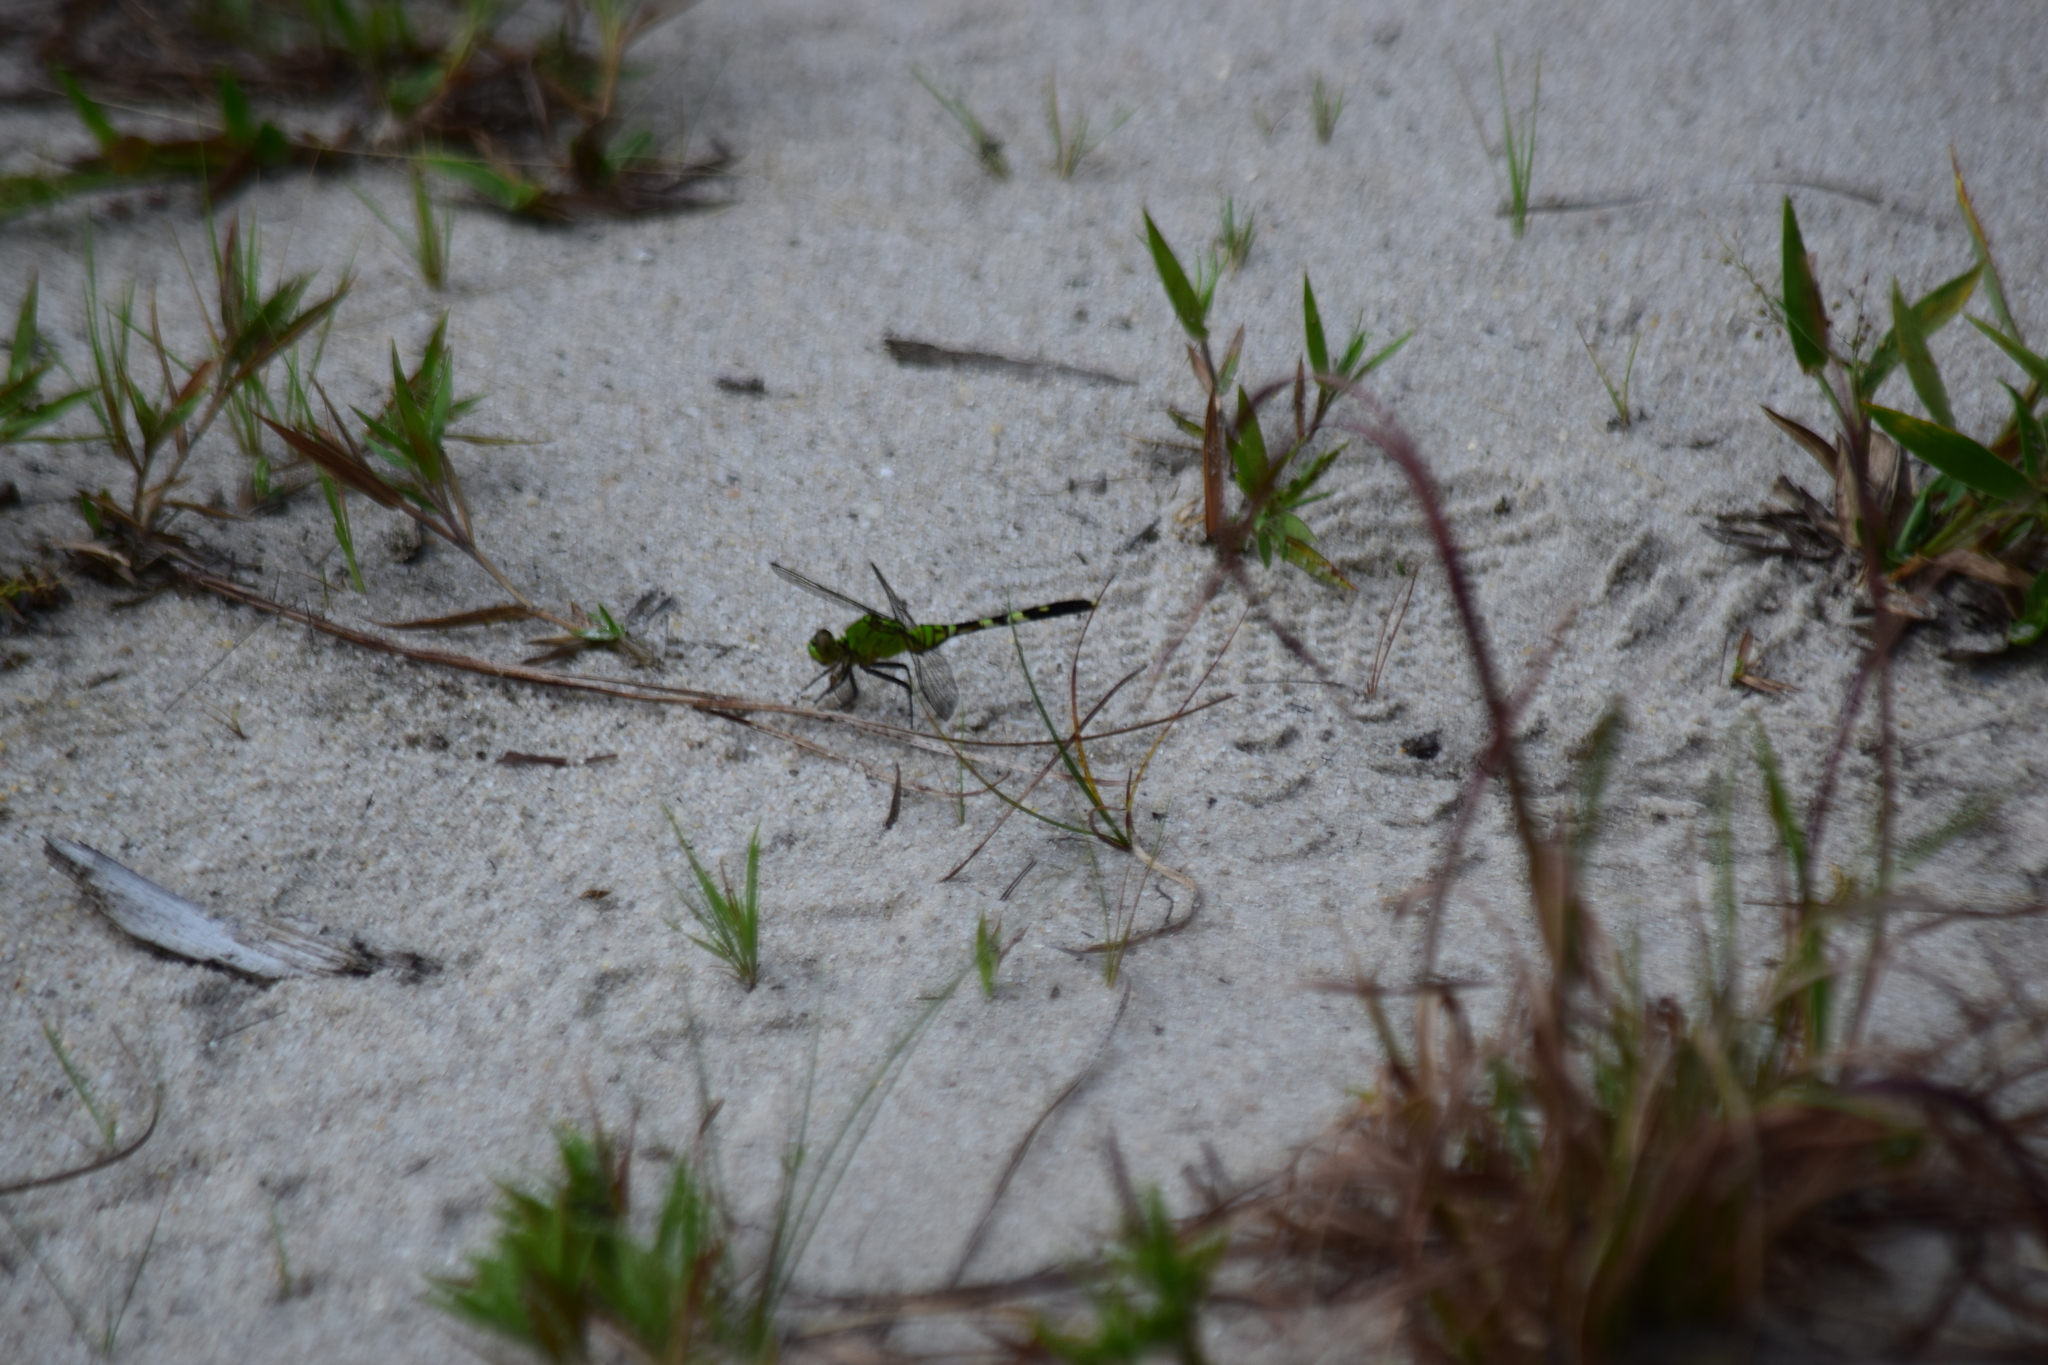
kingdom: Animalia
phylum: Arthropoda
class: Insecta
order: Odonata
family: Libellulidae
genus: Erythemis
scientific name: Erythemis simplicicollis
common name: Eastern pondhawk
